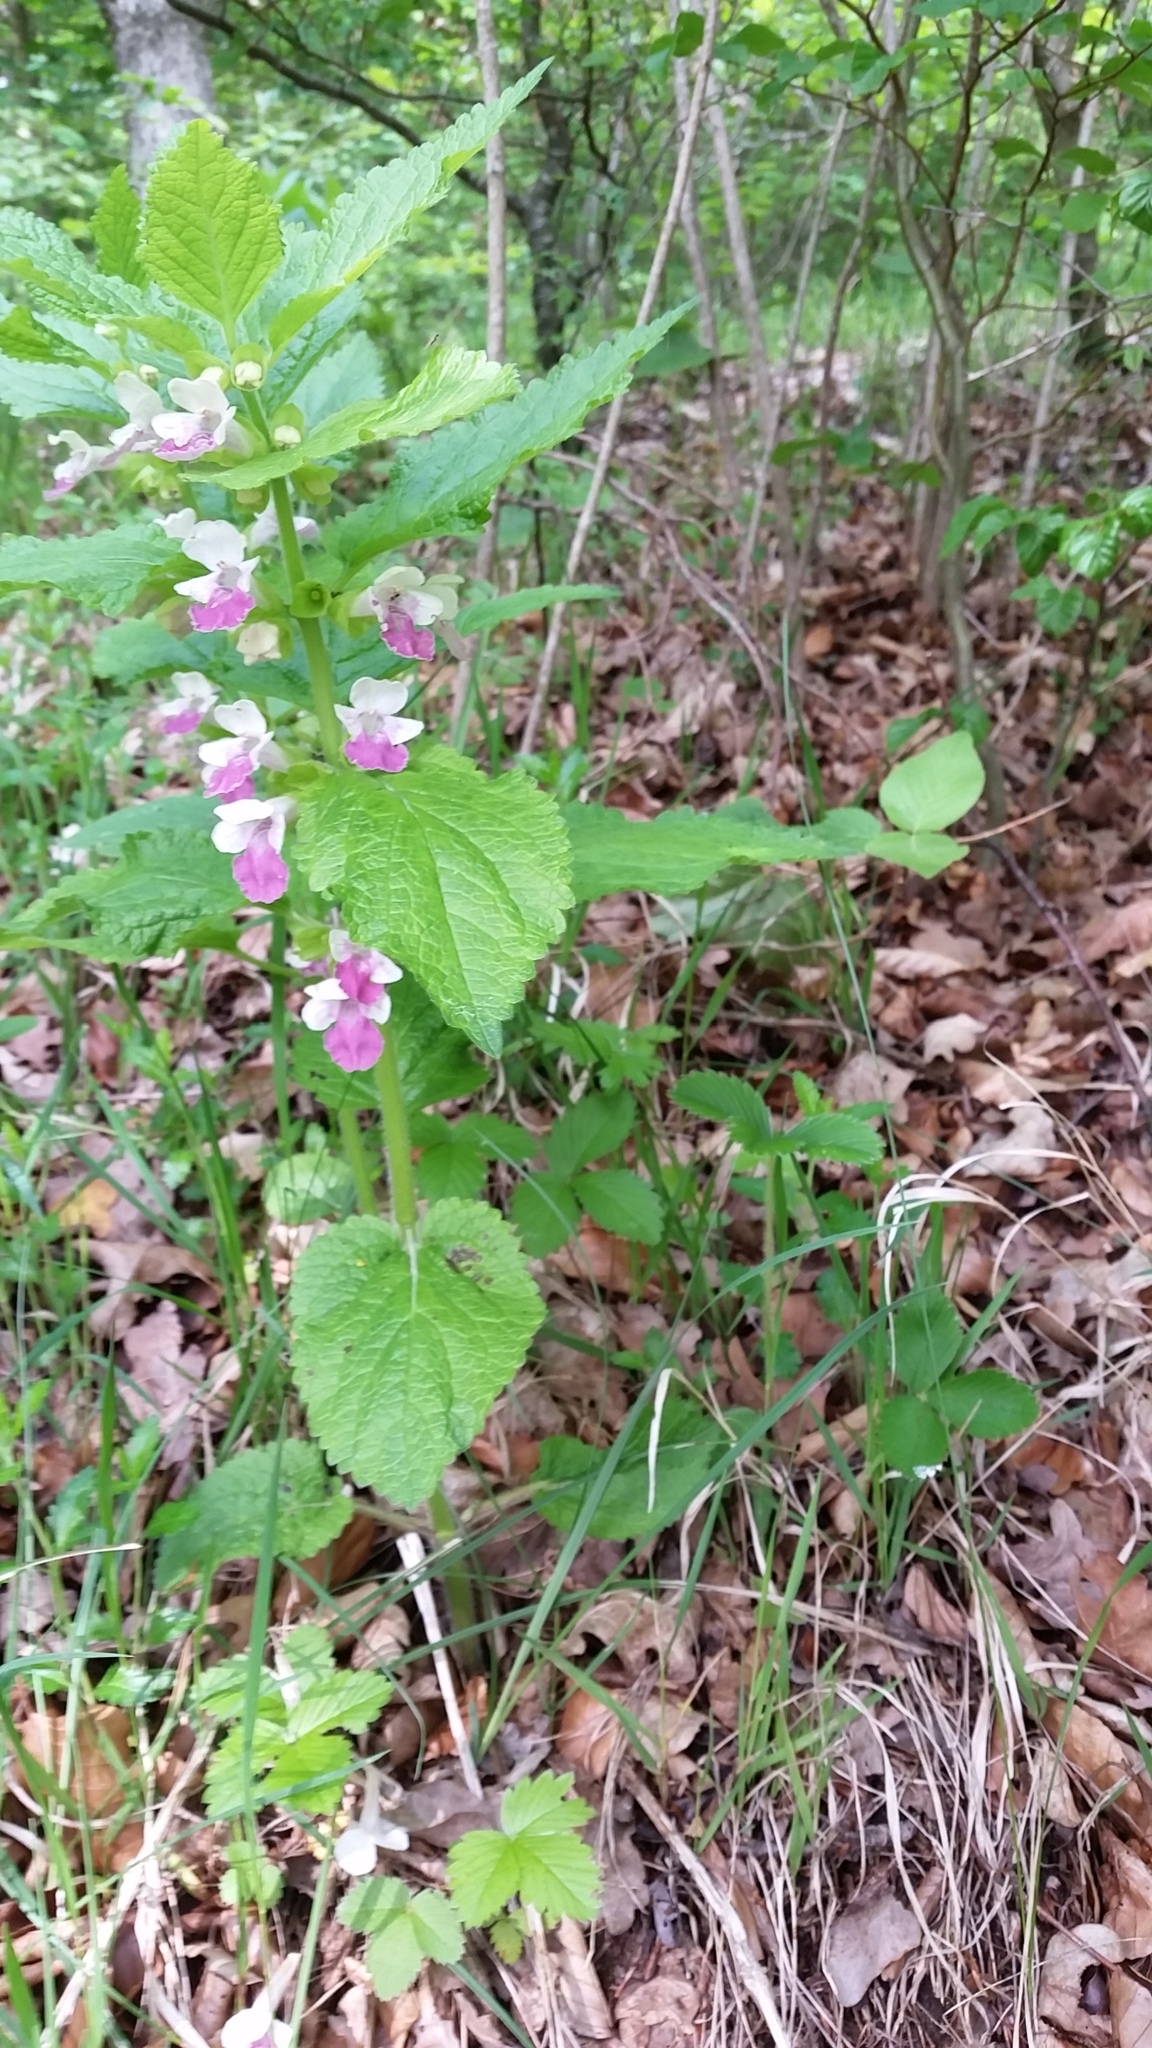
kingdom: Plantae
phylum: Tracheophyta
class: Magnoliopsida
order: Lamiales
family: Lamiaceae
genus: Melittis
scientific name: Melittis melissophyllum
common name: Bastard balm
